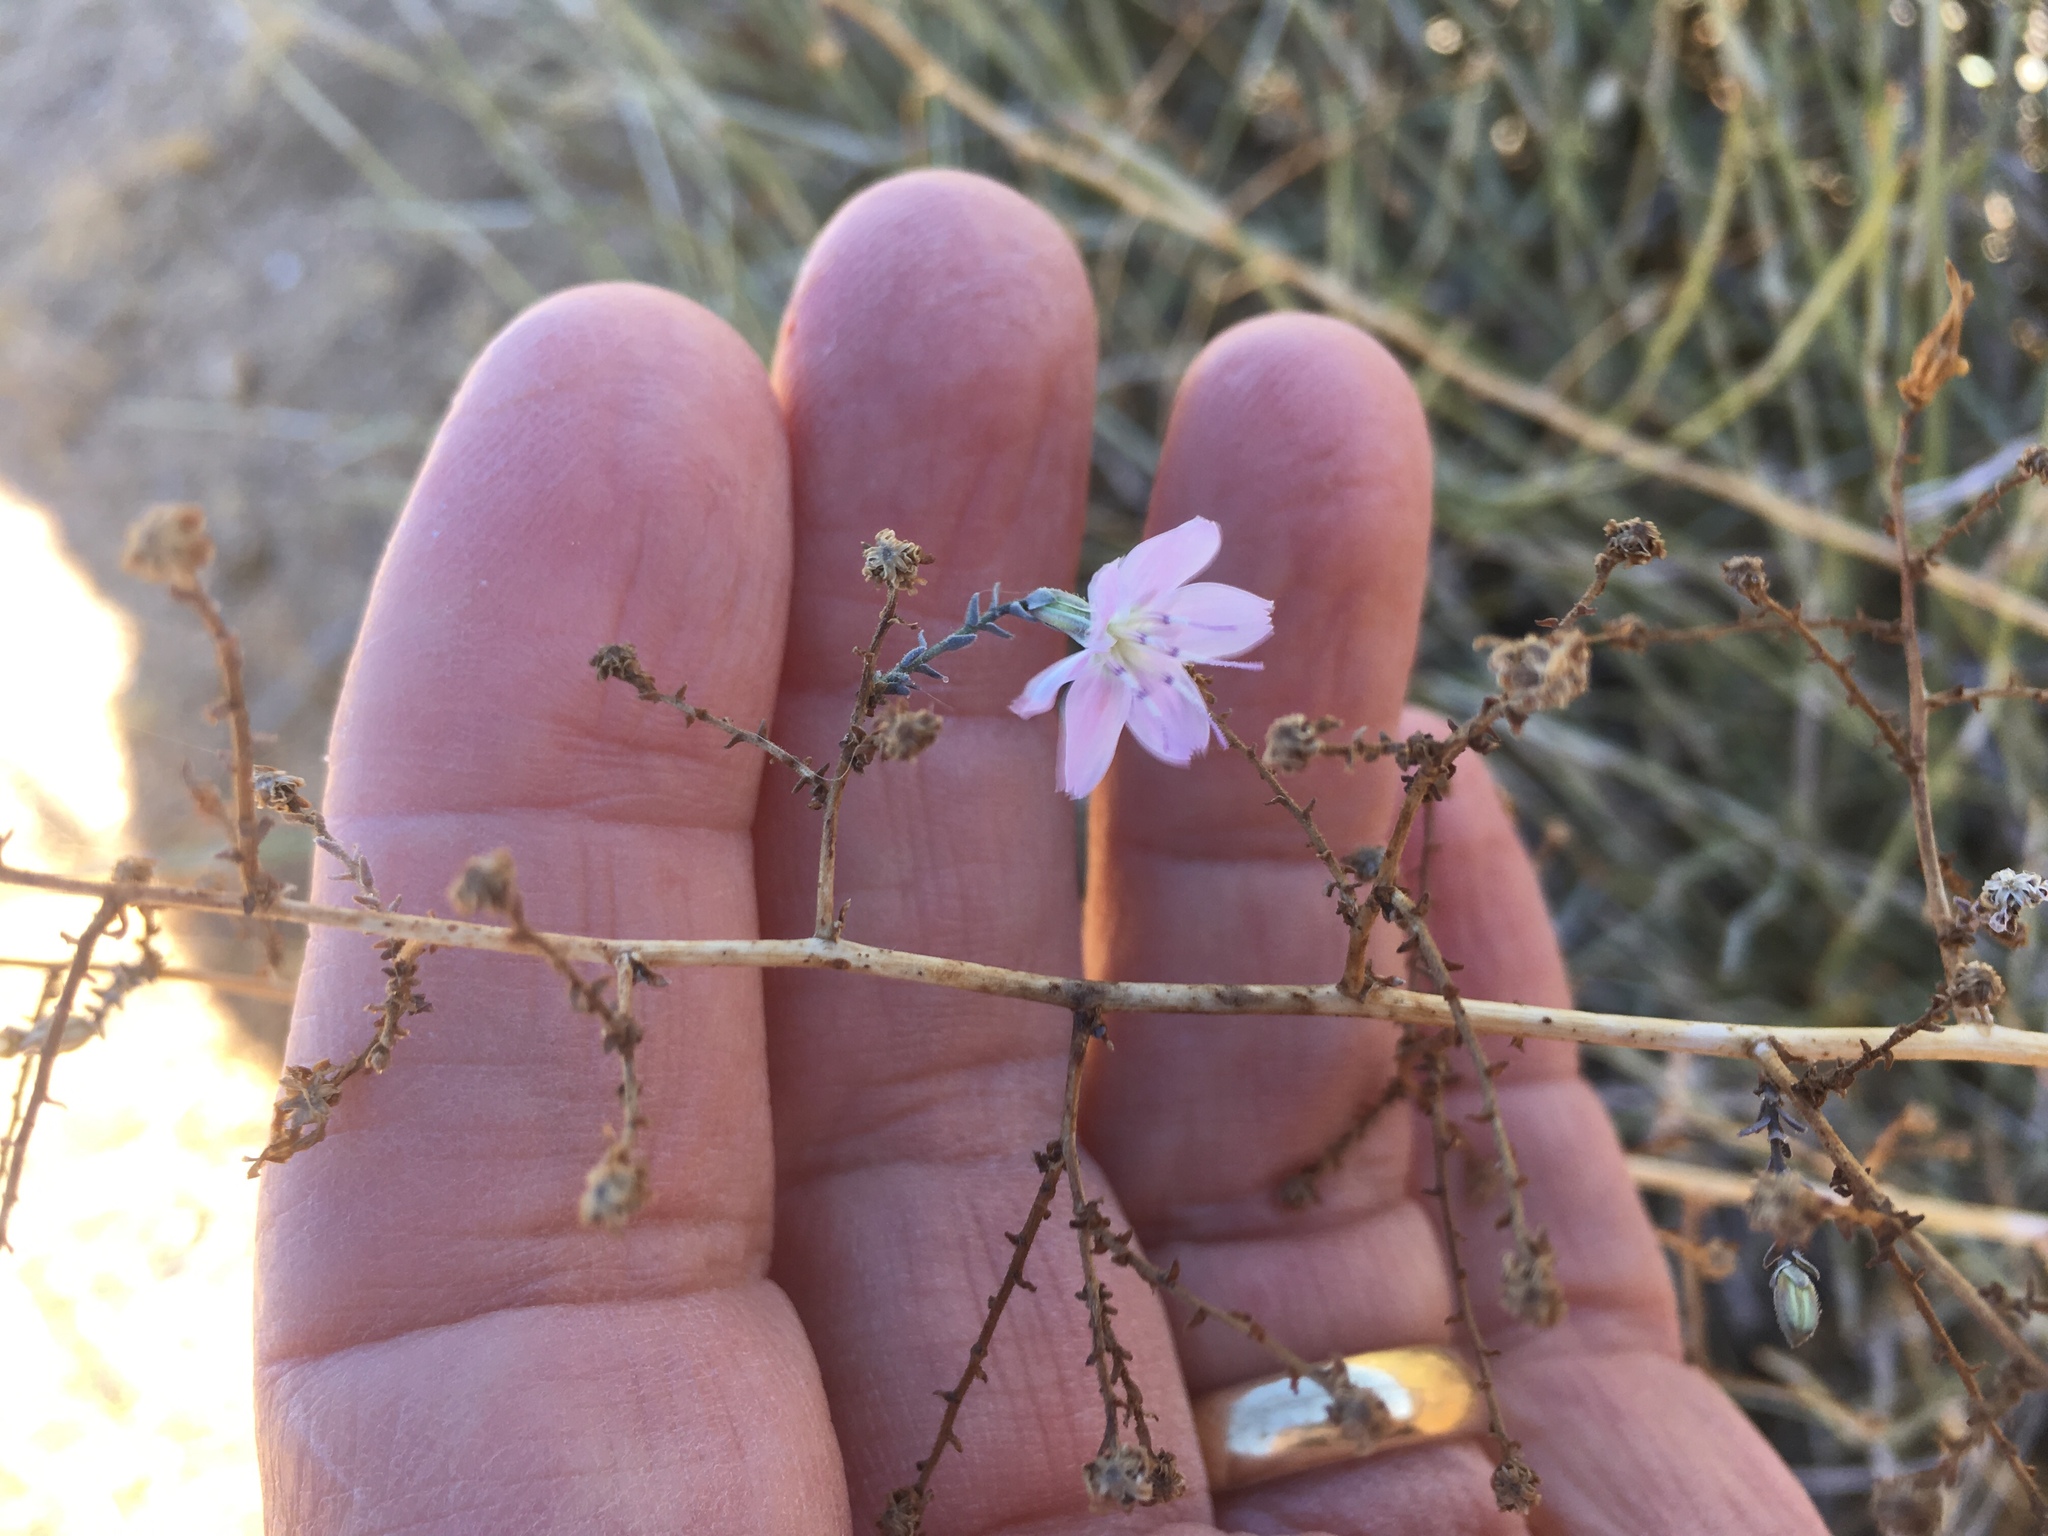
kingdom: Plantae
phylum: Tracheophyta
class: Magnoliopsida
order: Asterales
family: Asteraceae
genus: Stephanomeria
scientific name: Stephanomeria exigua
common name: Small wirelettuce
